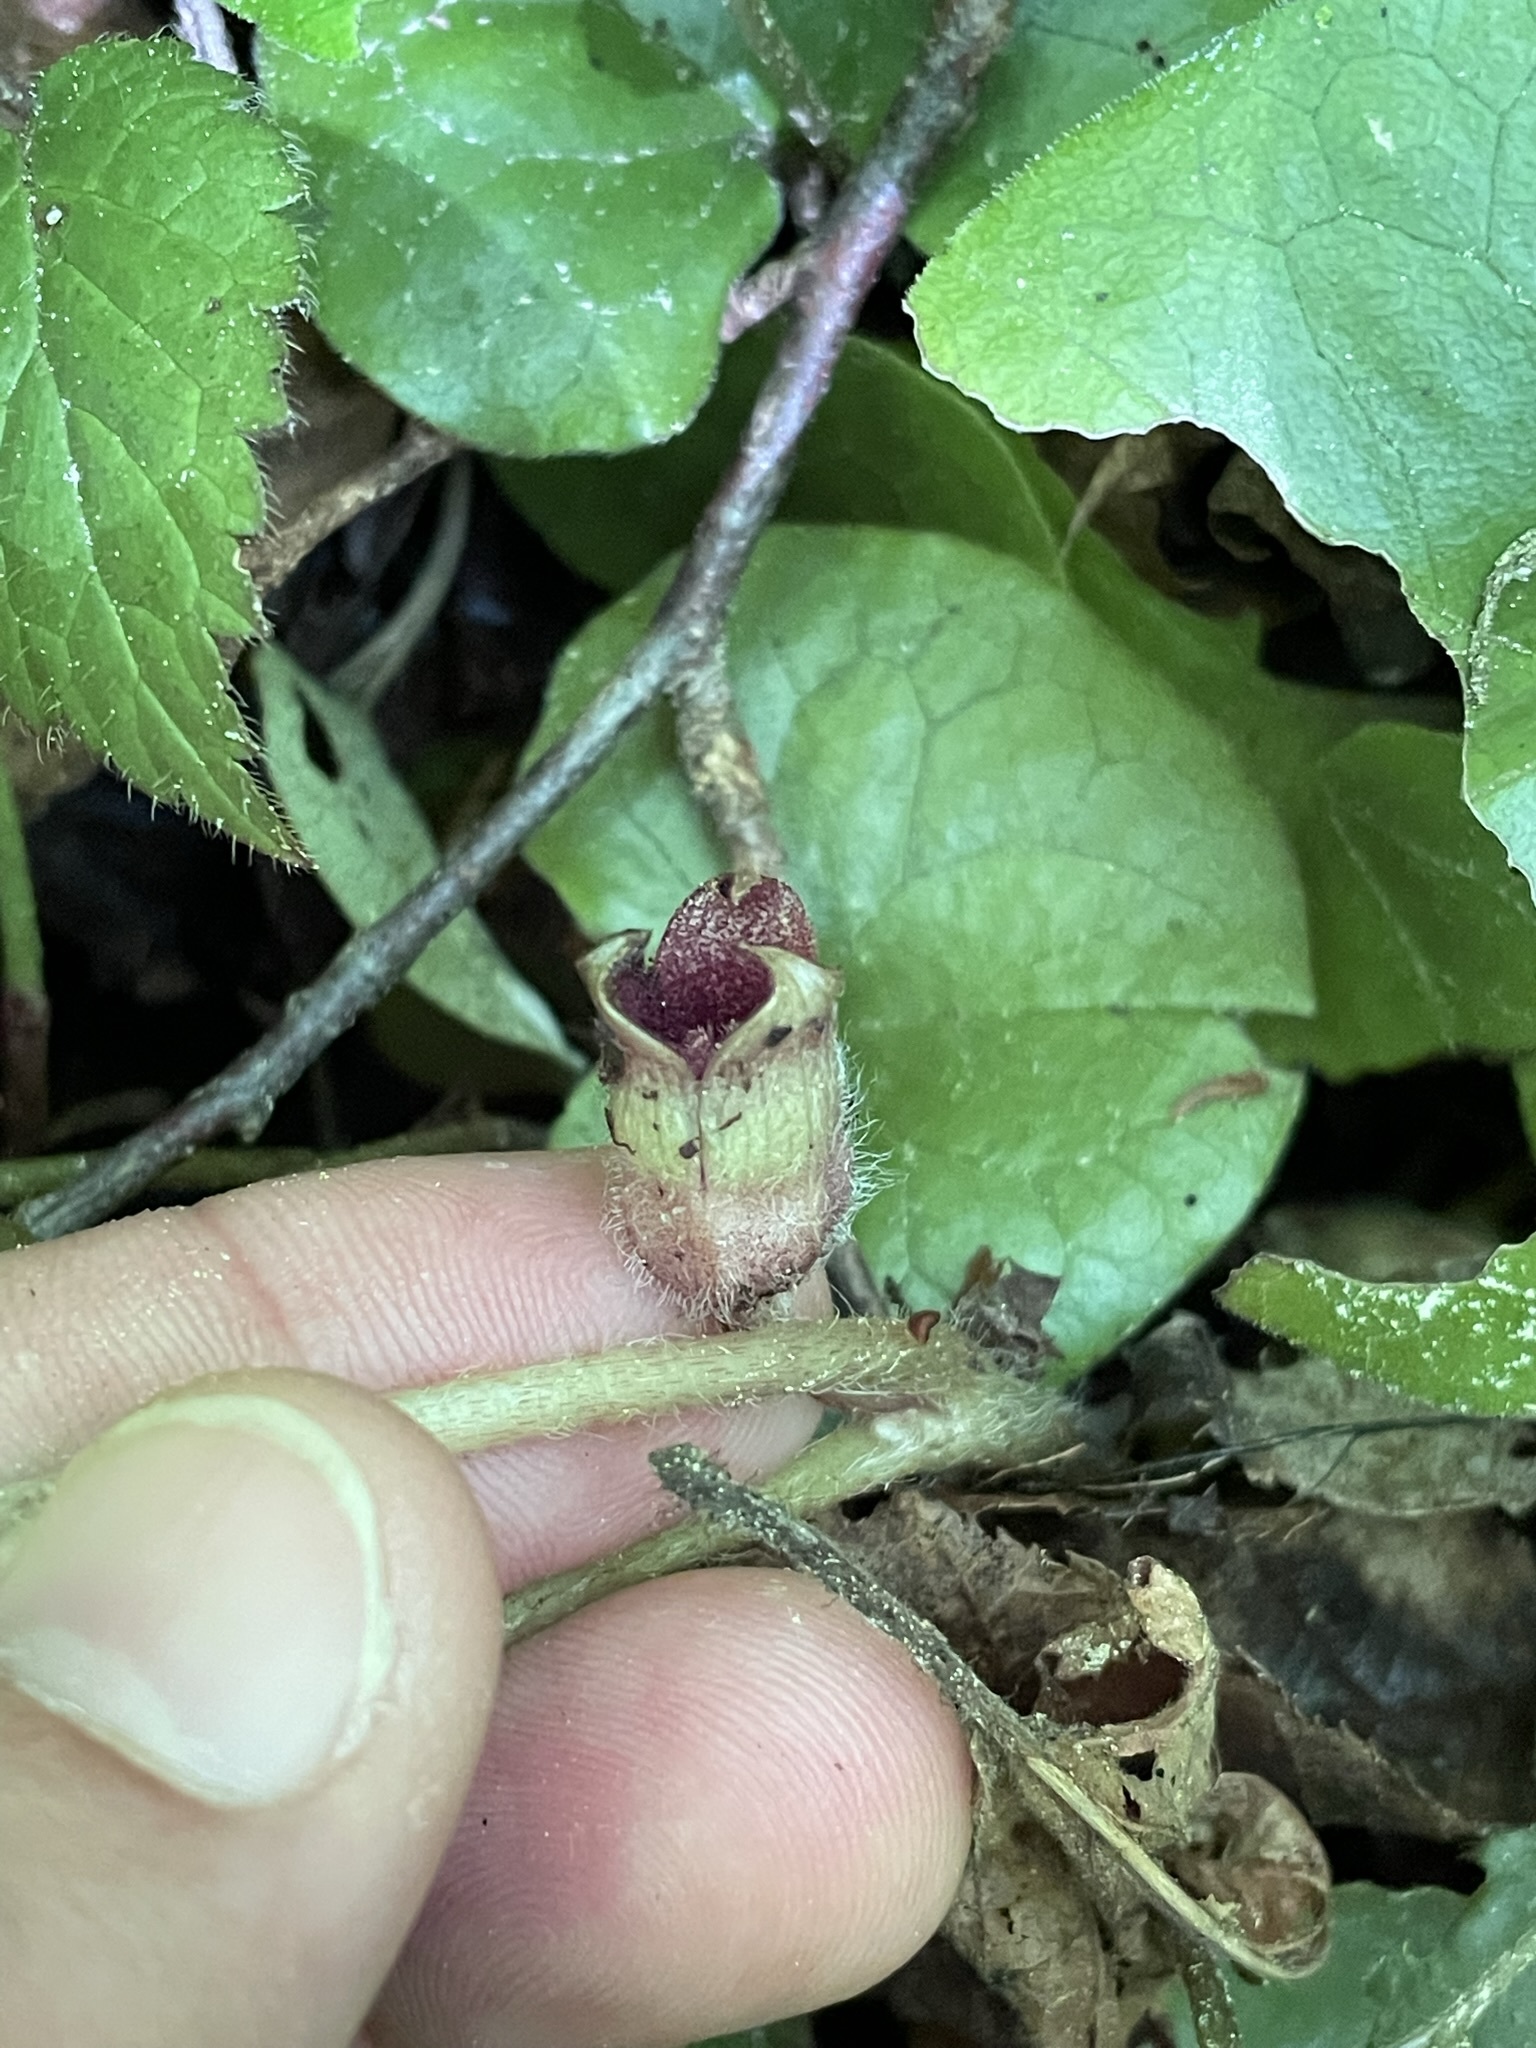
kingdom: Plantae
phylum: Tracheophyta
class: Magnoliopsida
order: Piperales
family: Aristolochiaceae
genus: Asarum
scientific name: Asarum europaeum
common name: Asarabacca
